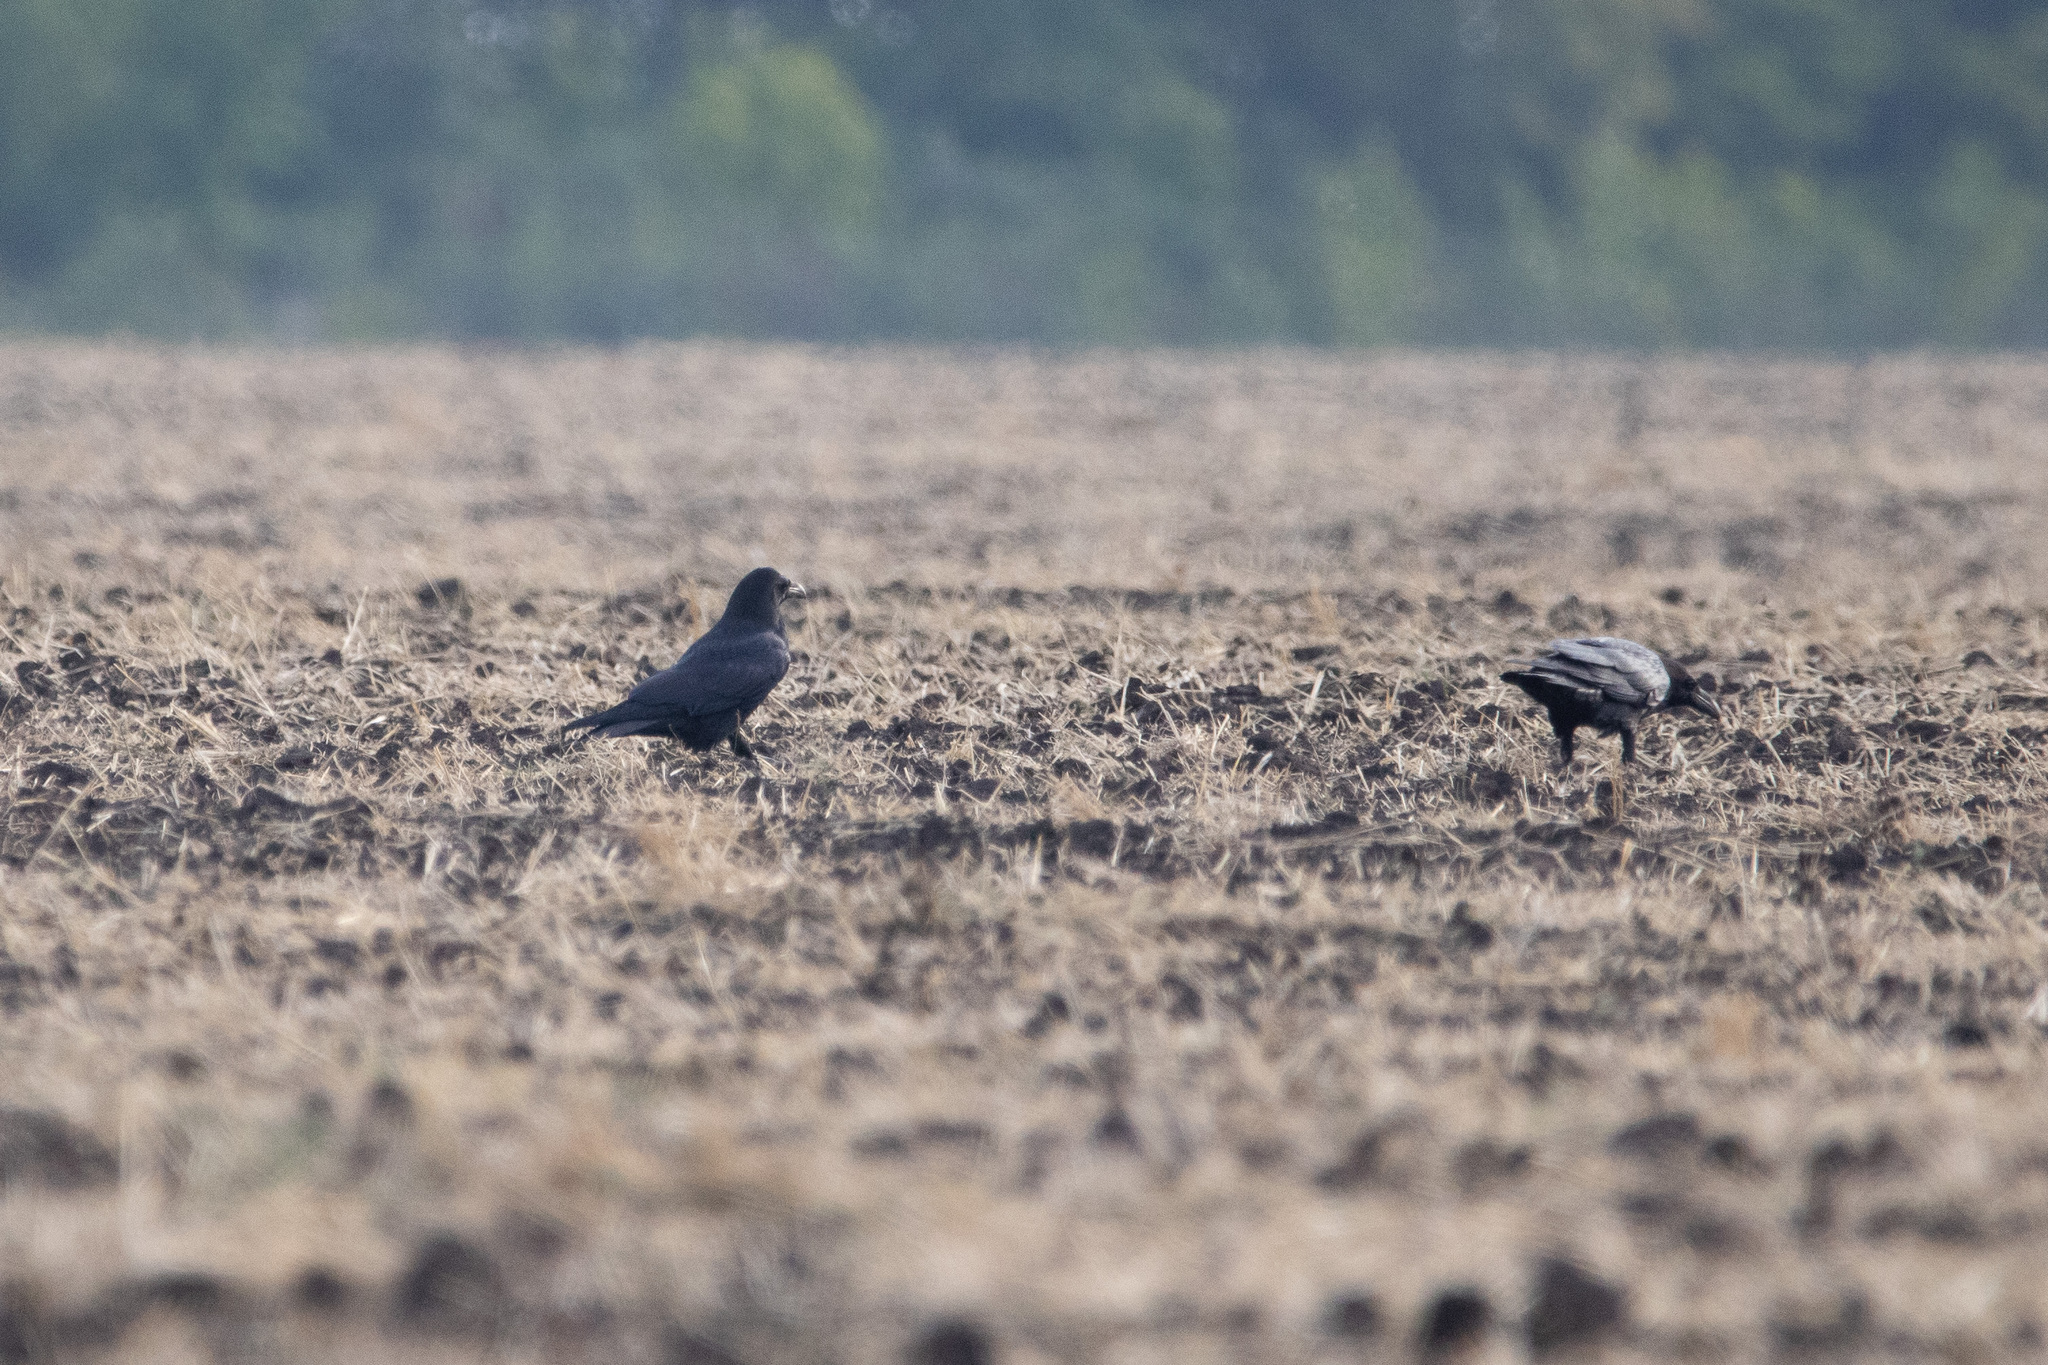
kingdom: Animalia
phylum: Chordata
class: Aves
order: Passeriformes
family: Corvidae
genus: Corvus
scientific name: Corvus corax
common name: Common raven
